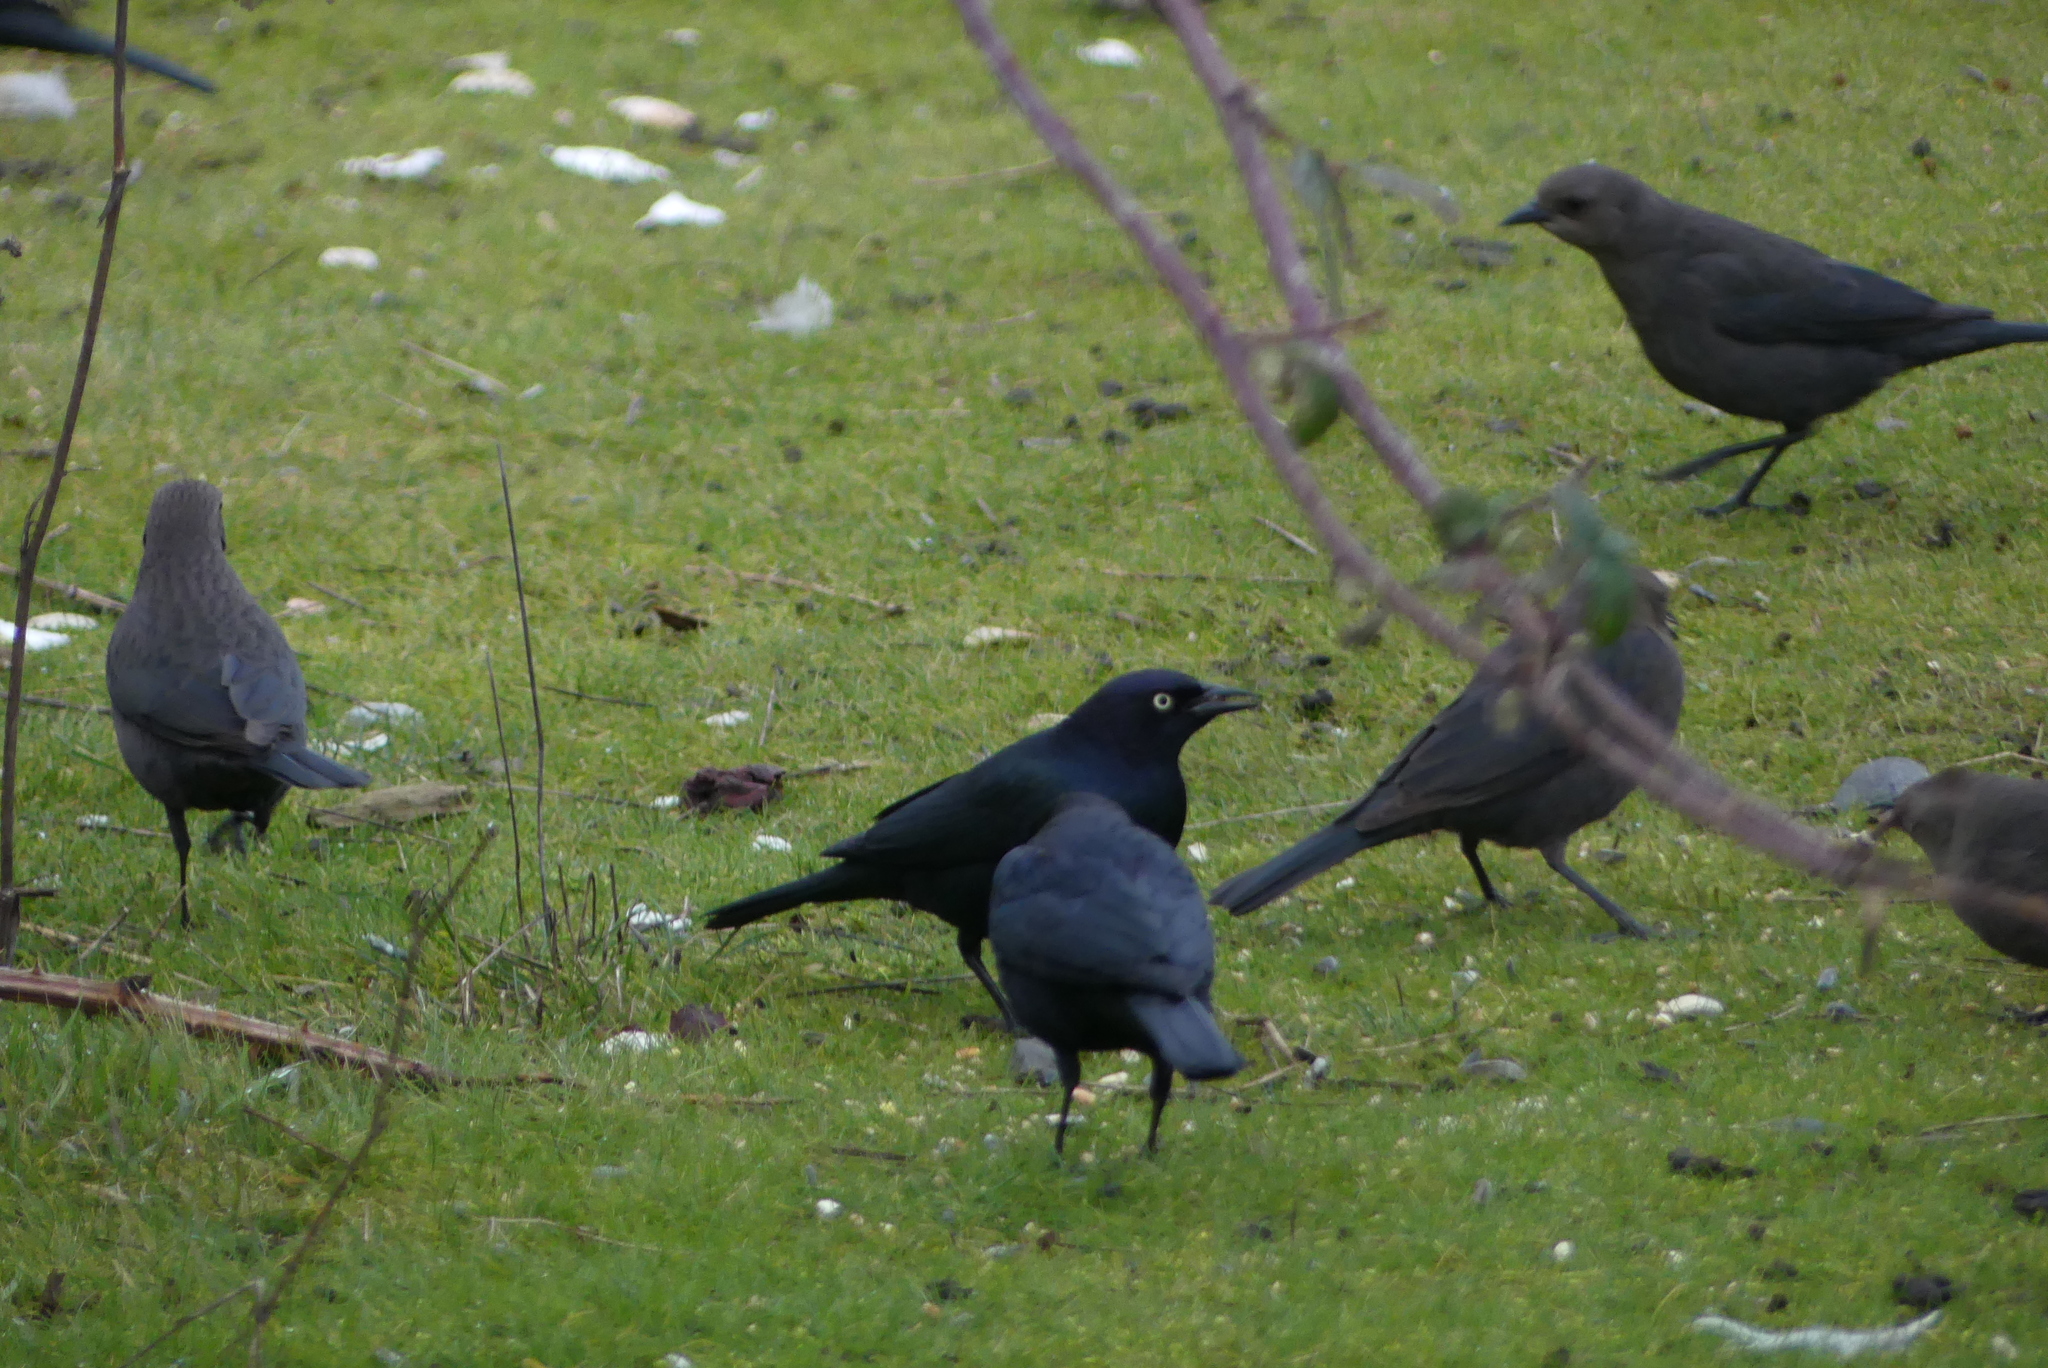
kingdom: Animalia
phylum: Chordata
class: Aves
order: Passeriformes
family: Icteridae
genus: Euphagus
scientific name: Euphagus cyanocephalus
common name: Brewer's blackbird
